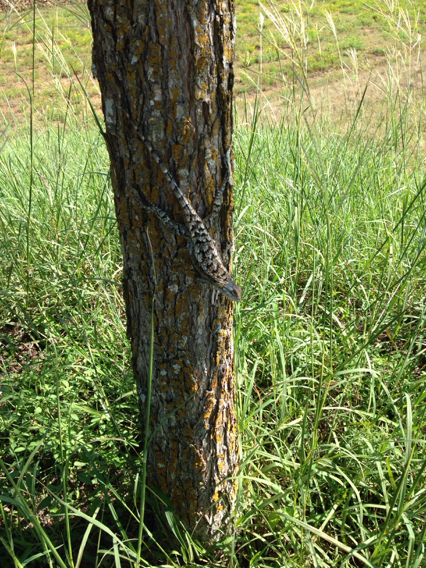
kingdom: Animalia
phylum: Chordata
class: Squamata
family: Phrynosomatidae
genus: Sceloporus
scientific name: Sceloporus olivaceus
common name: Texas spiny lizard
